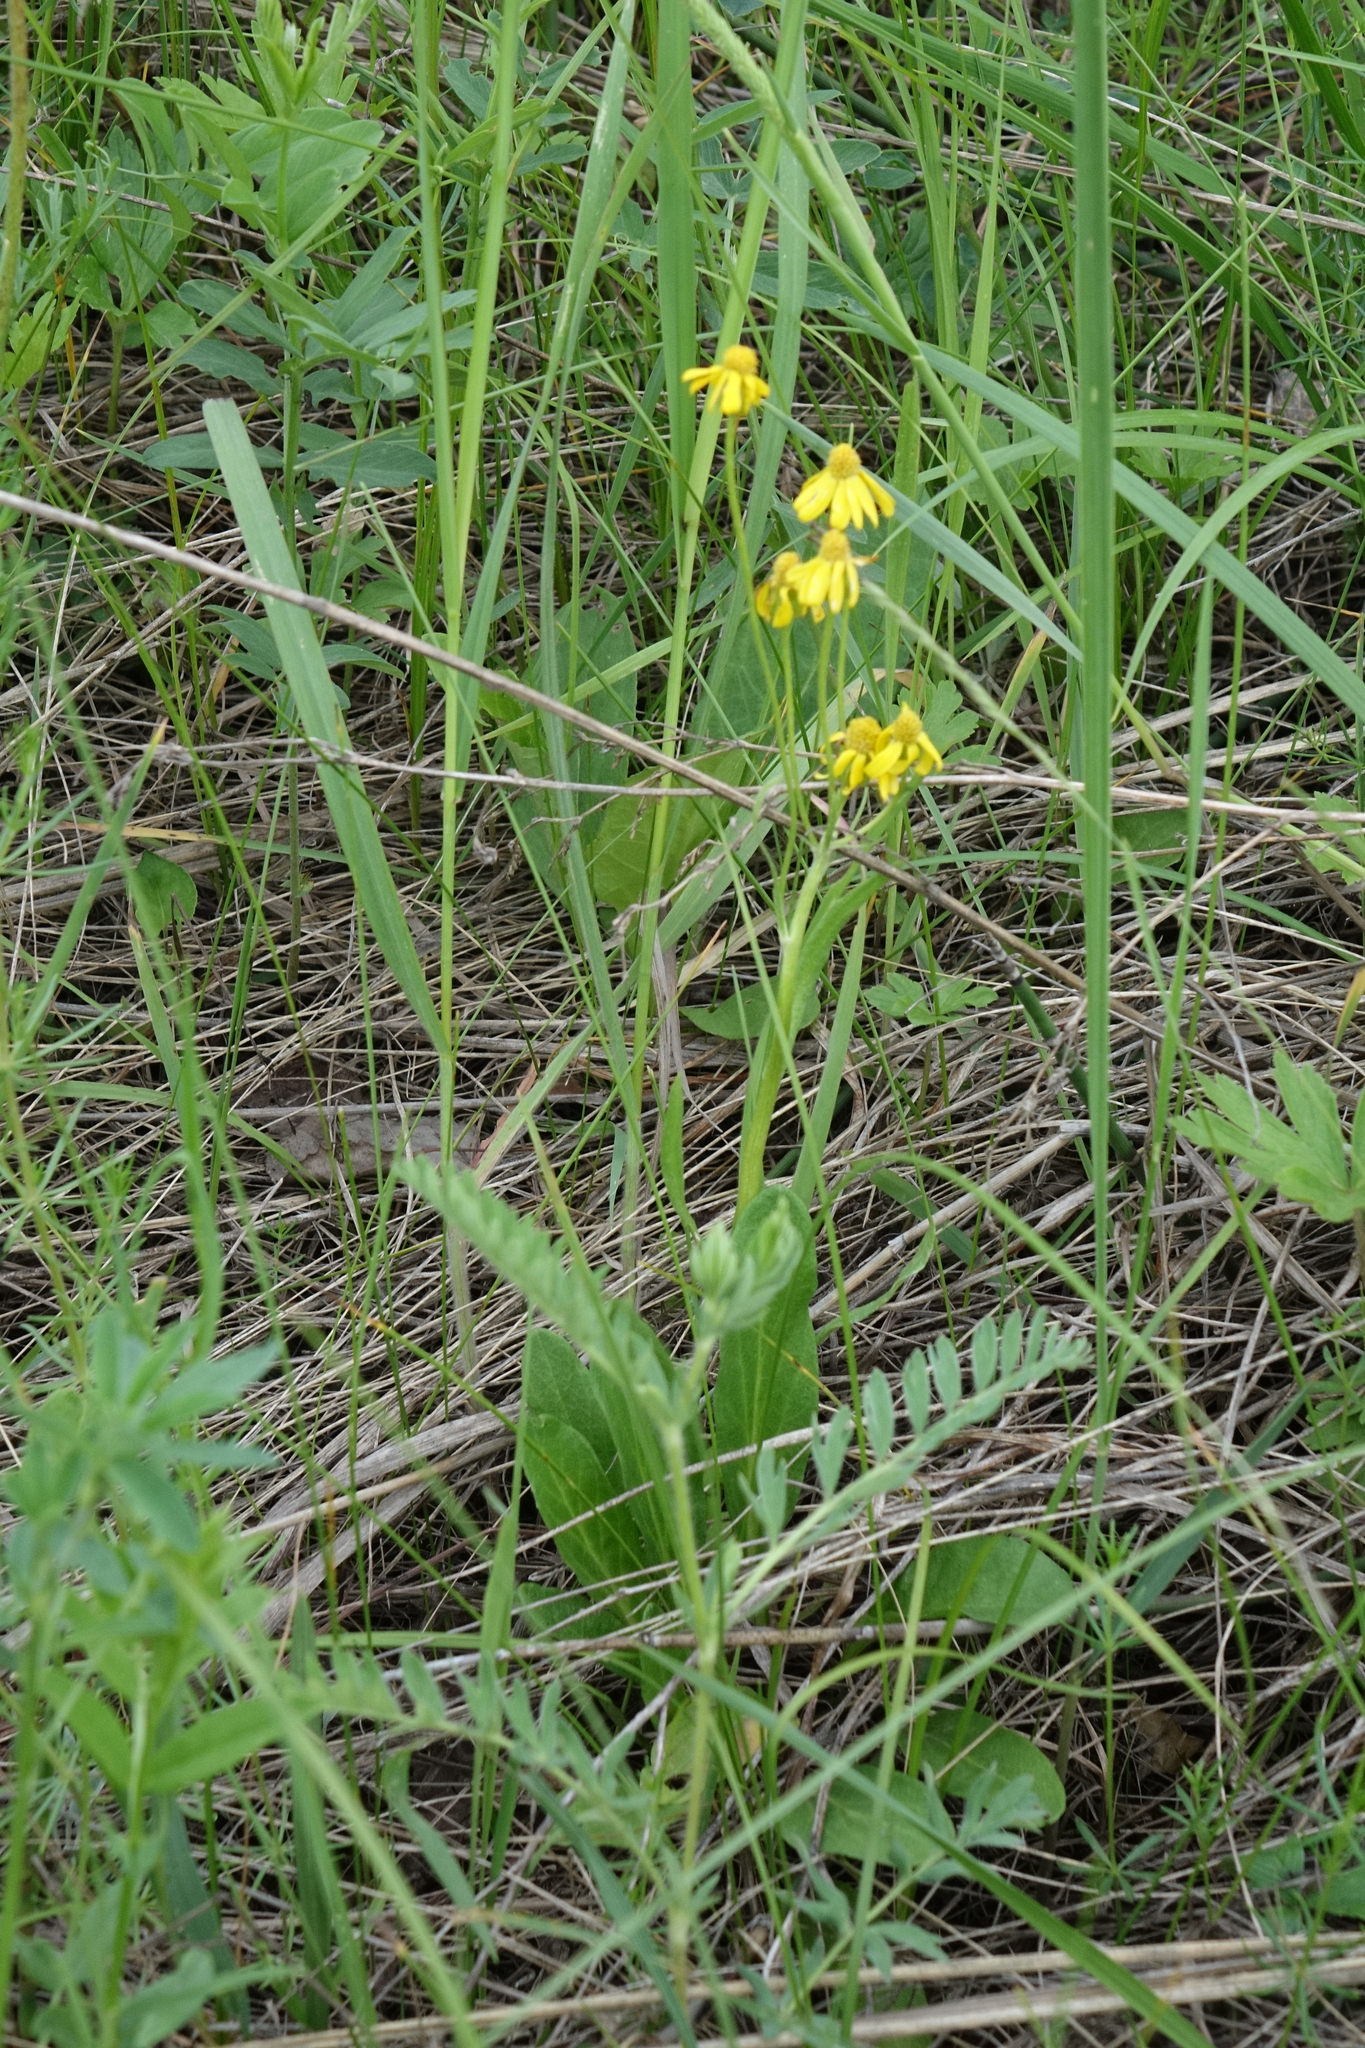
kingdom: Plantae
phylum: Tracheophyta
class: Magnoliopsida
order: Asterales
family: Asteraceae
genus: Tephroseris
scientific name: Tephroseris integrifolia
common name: Field fleawort
